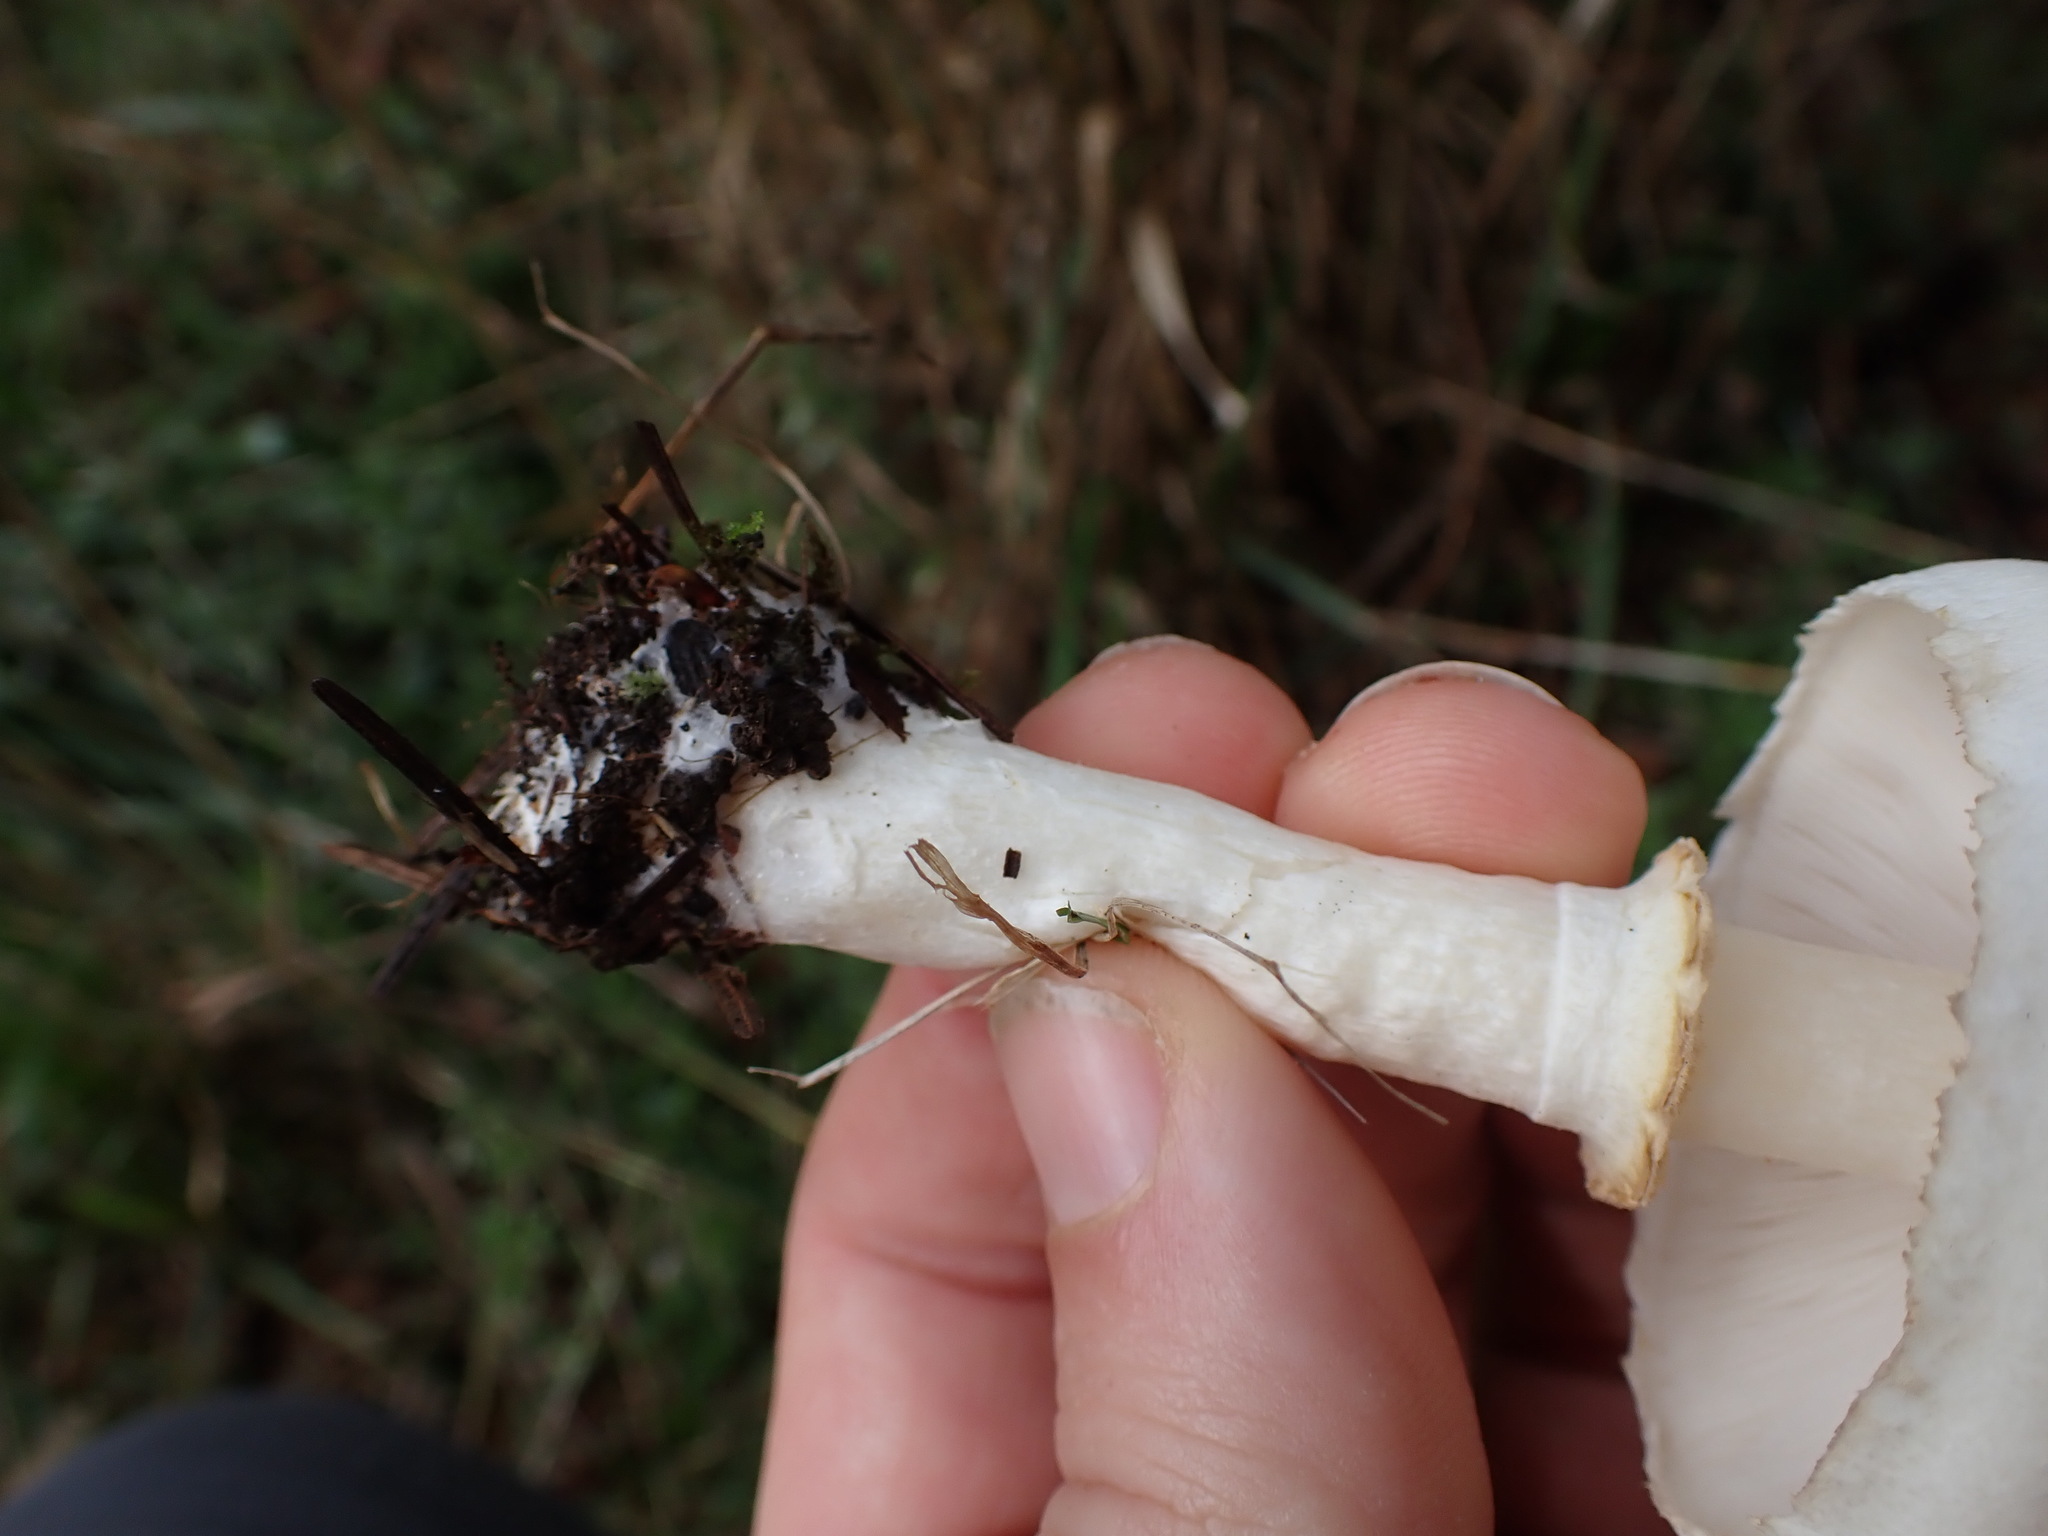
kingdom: Fungi
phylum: Basidiomycota
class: Agaricomycetes
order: Agaricales
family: Agaricaceae
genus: Leucoagaricus
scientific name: Leucoagaricus leucothites
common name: White dapperling
